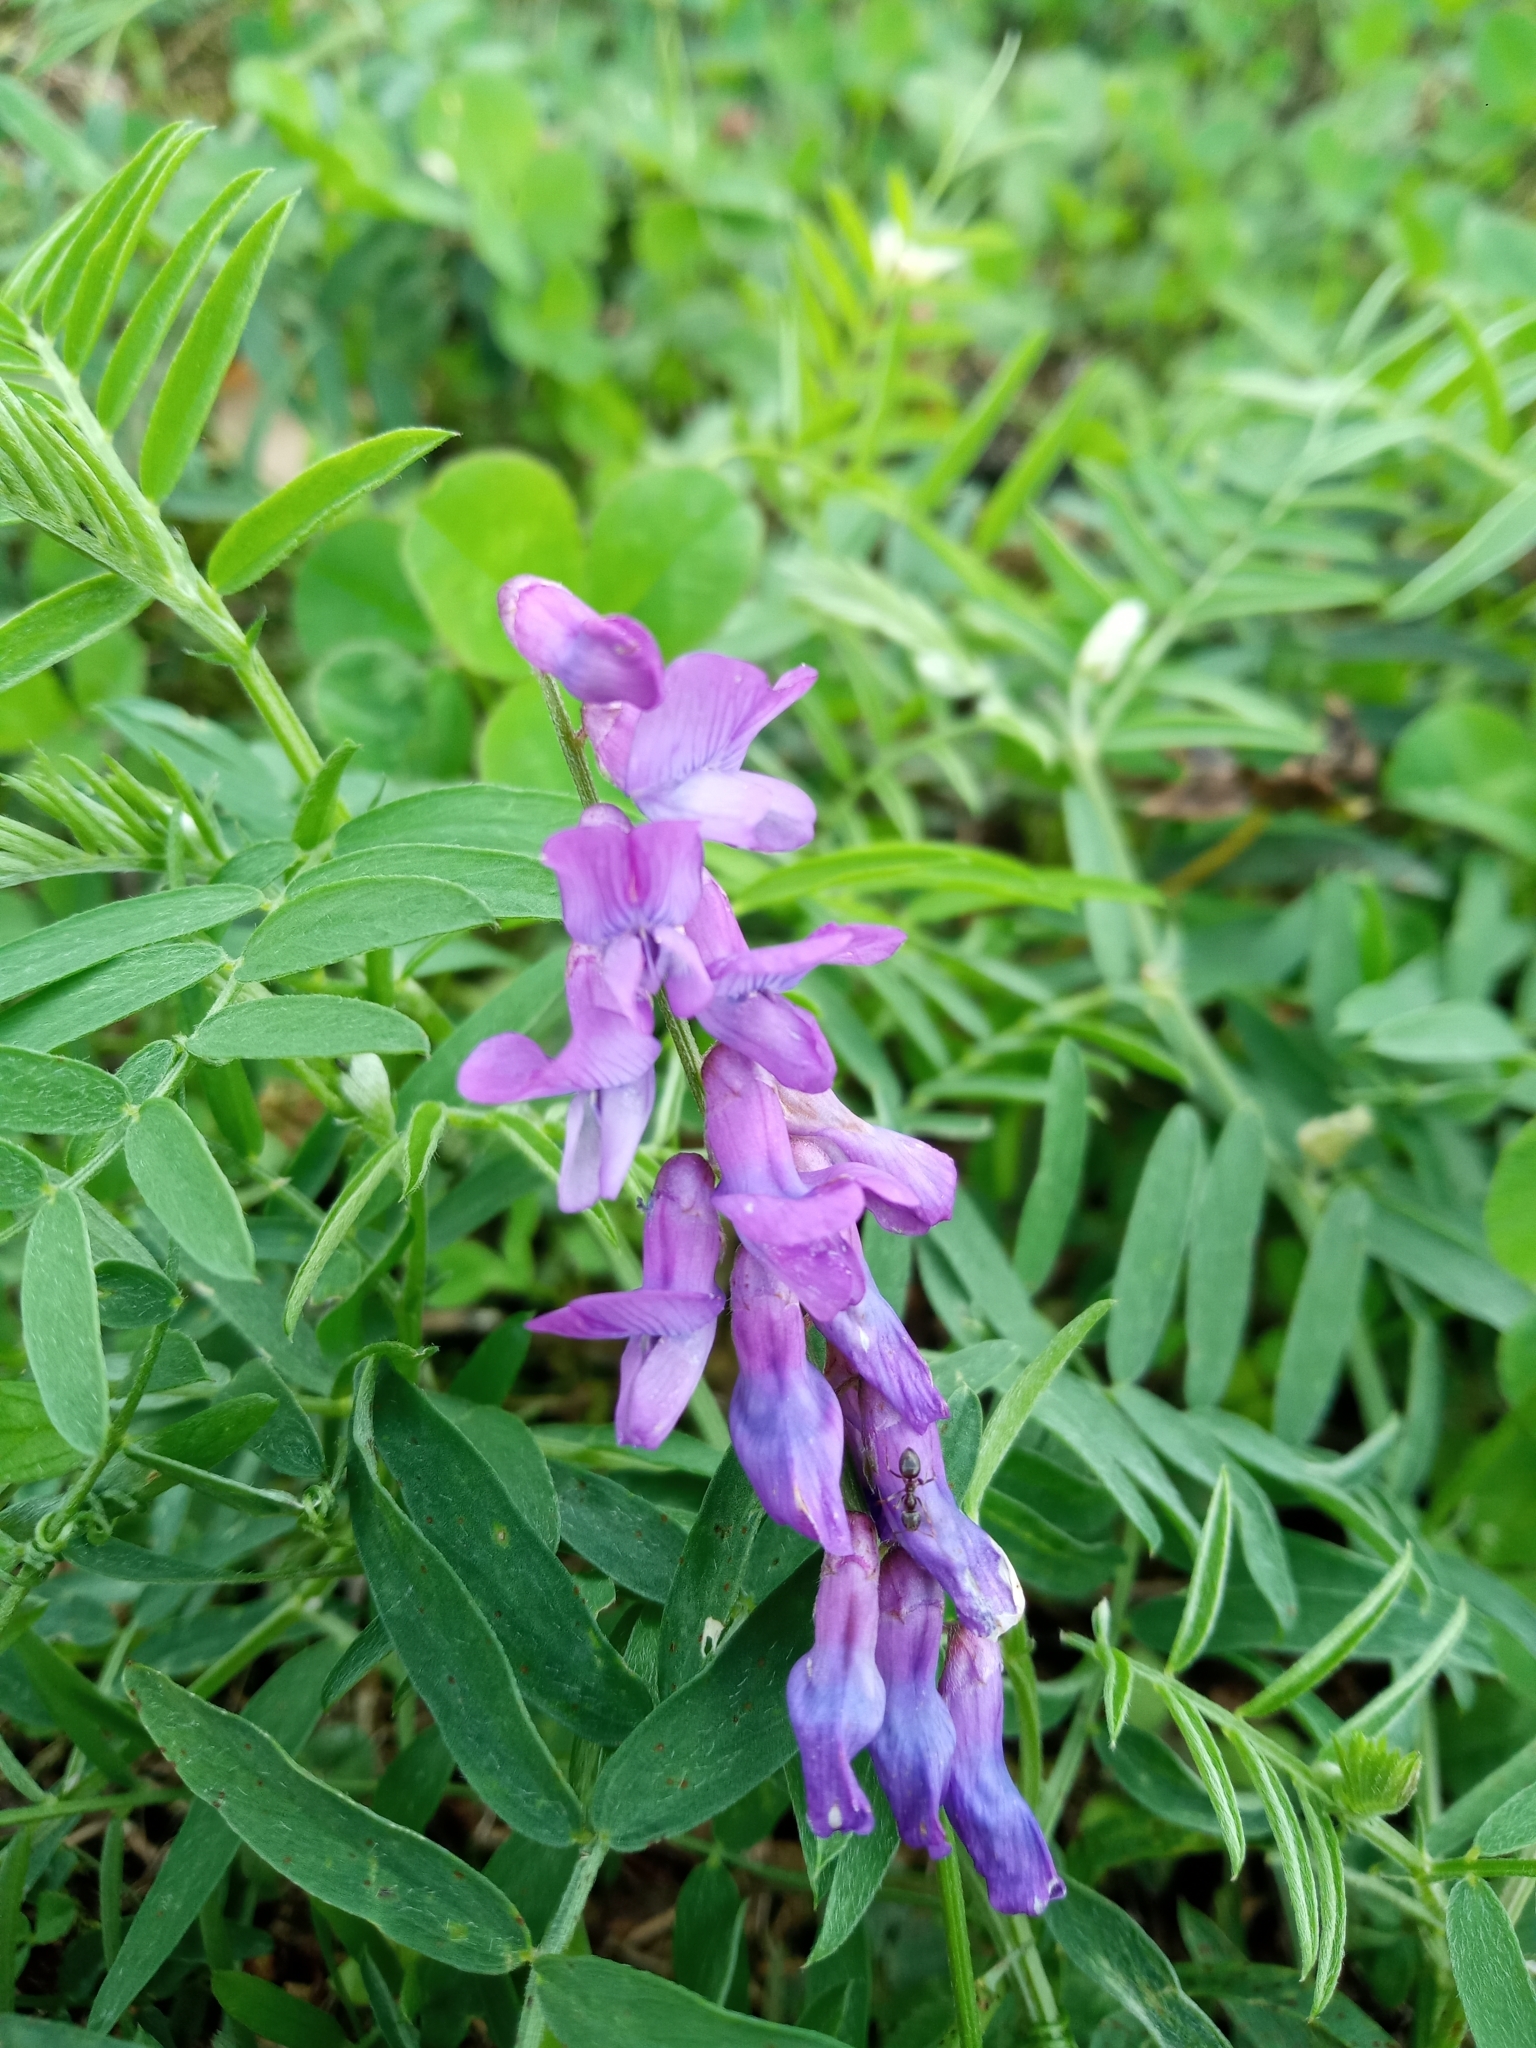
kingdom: Plantae
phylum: Tracheophyta
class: Magnoliopsida
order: Fabales
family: Fabaceae
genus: Vicia
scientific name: Vicia cracca
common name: Bird vetch
